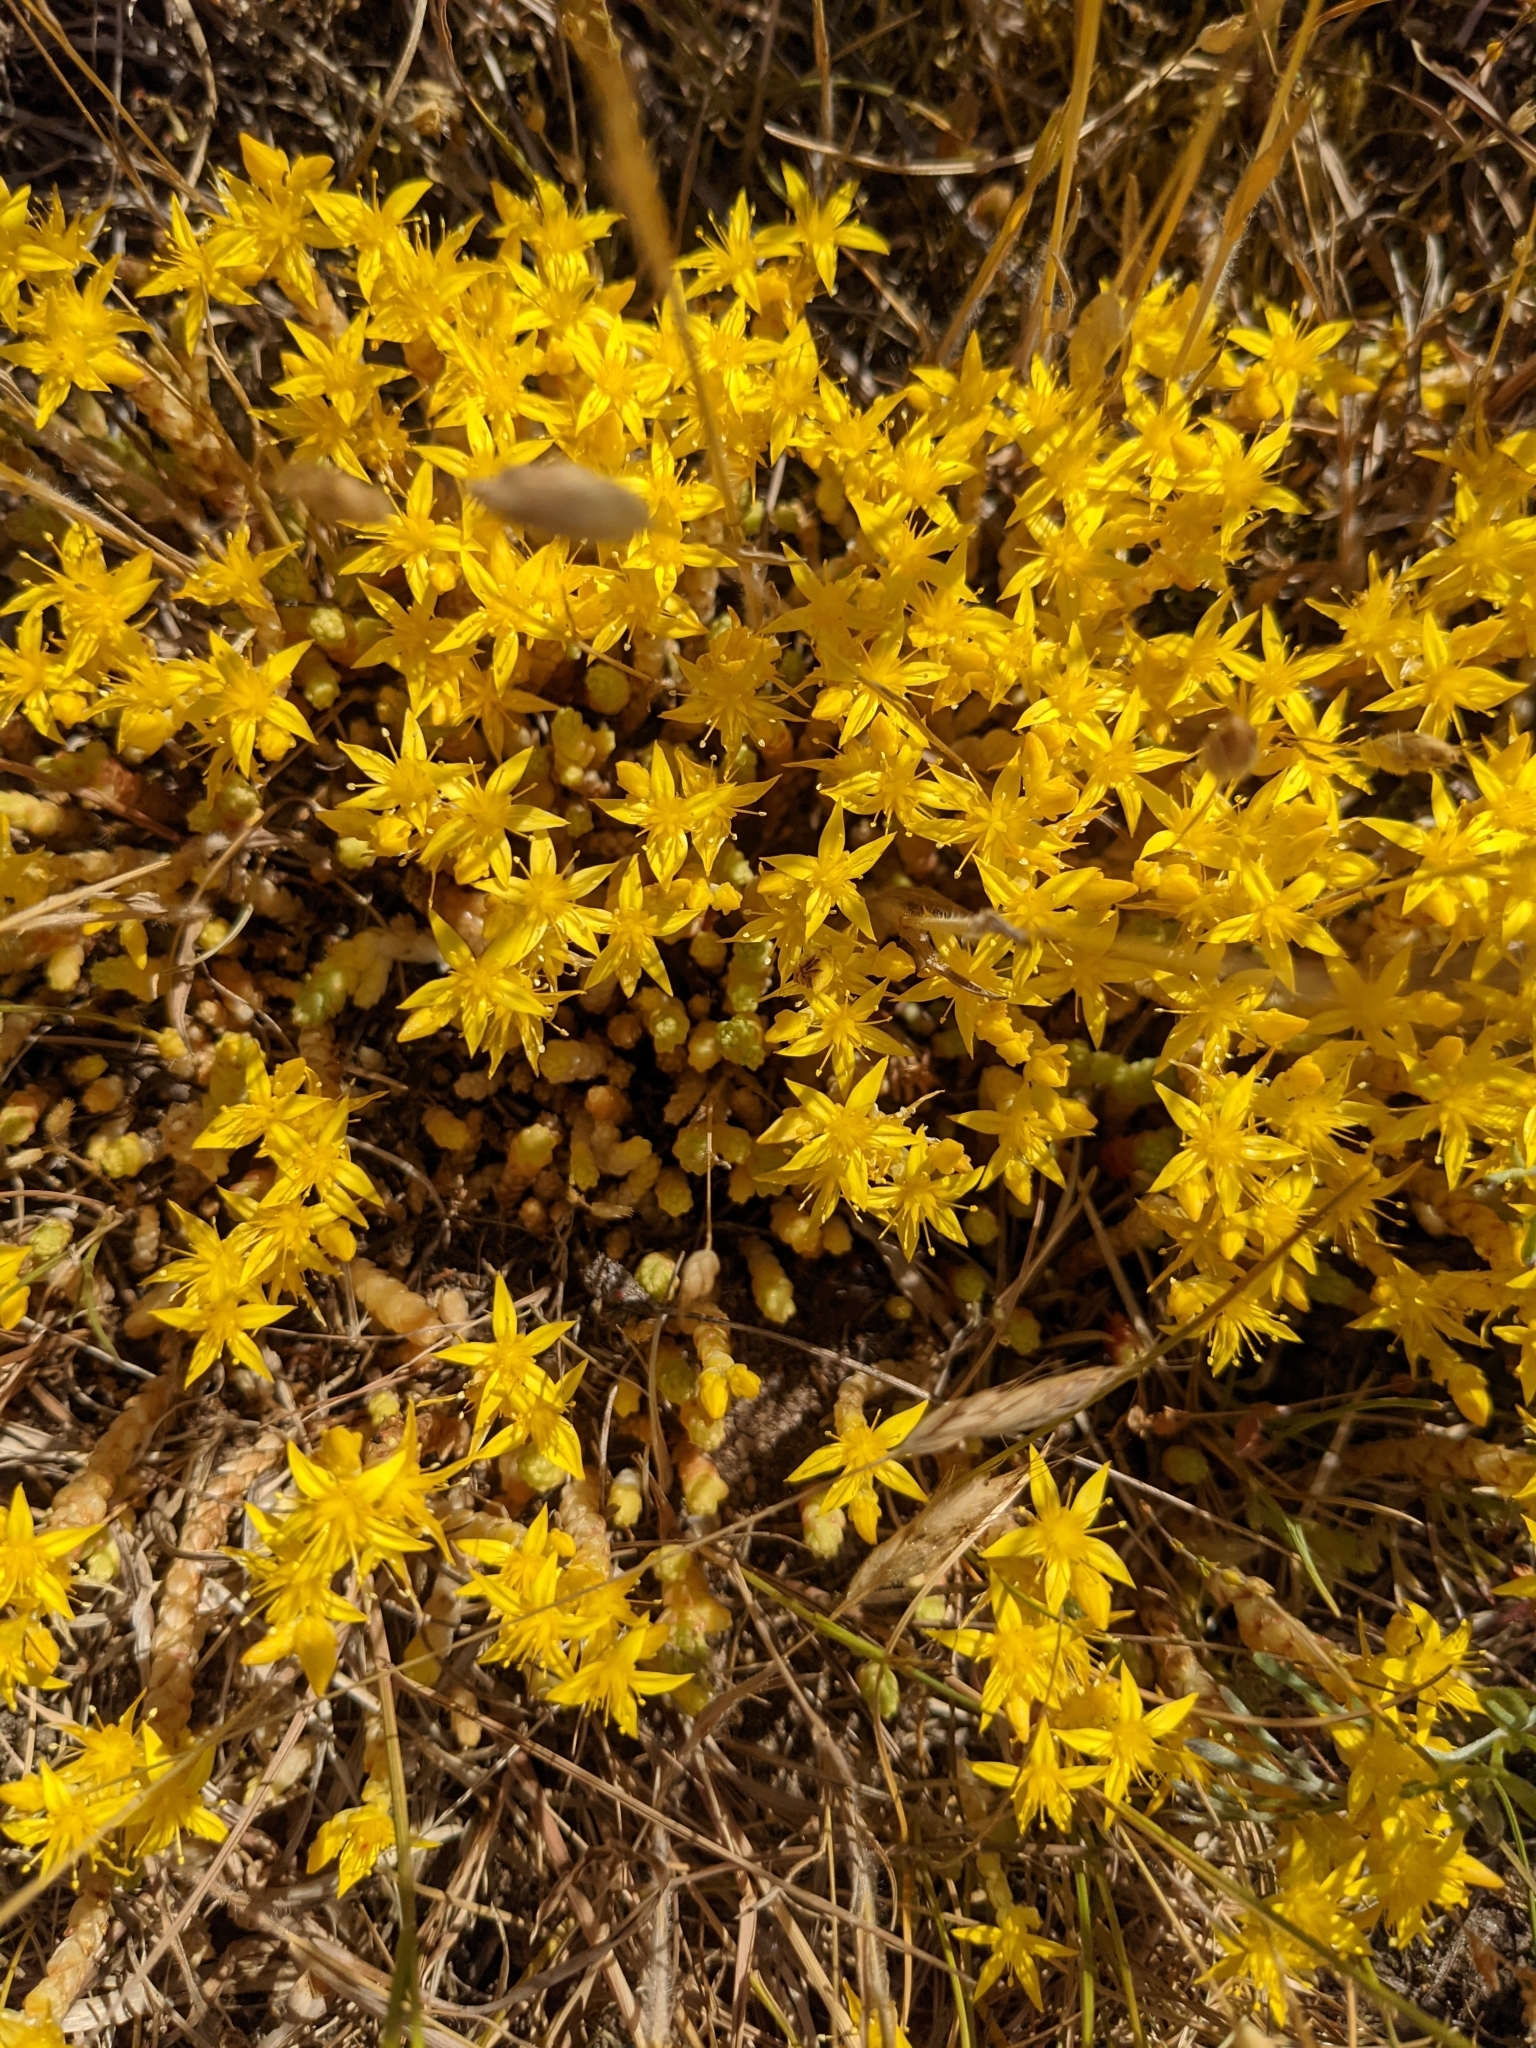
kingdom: Plantae
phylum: Tracheophyta
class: Magnoliopsida
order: Saxifragales
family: Crassulaceae
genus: Sedum
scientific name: Sedum acre
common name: Biting stonecrop
